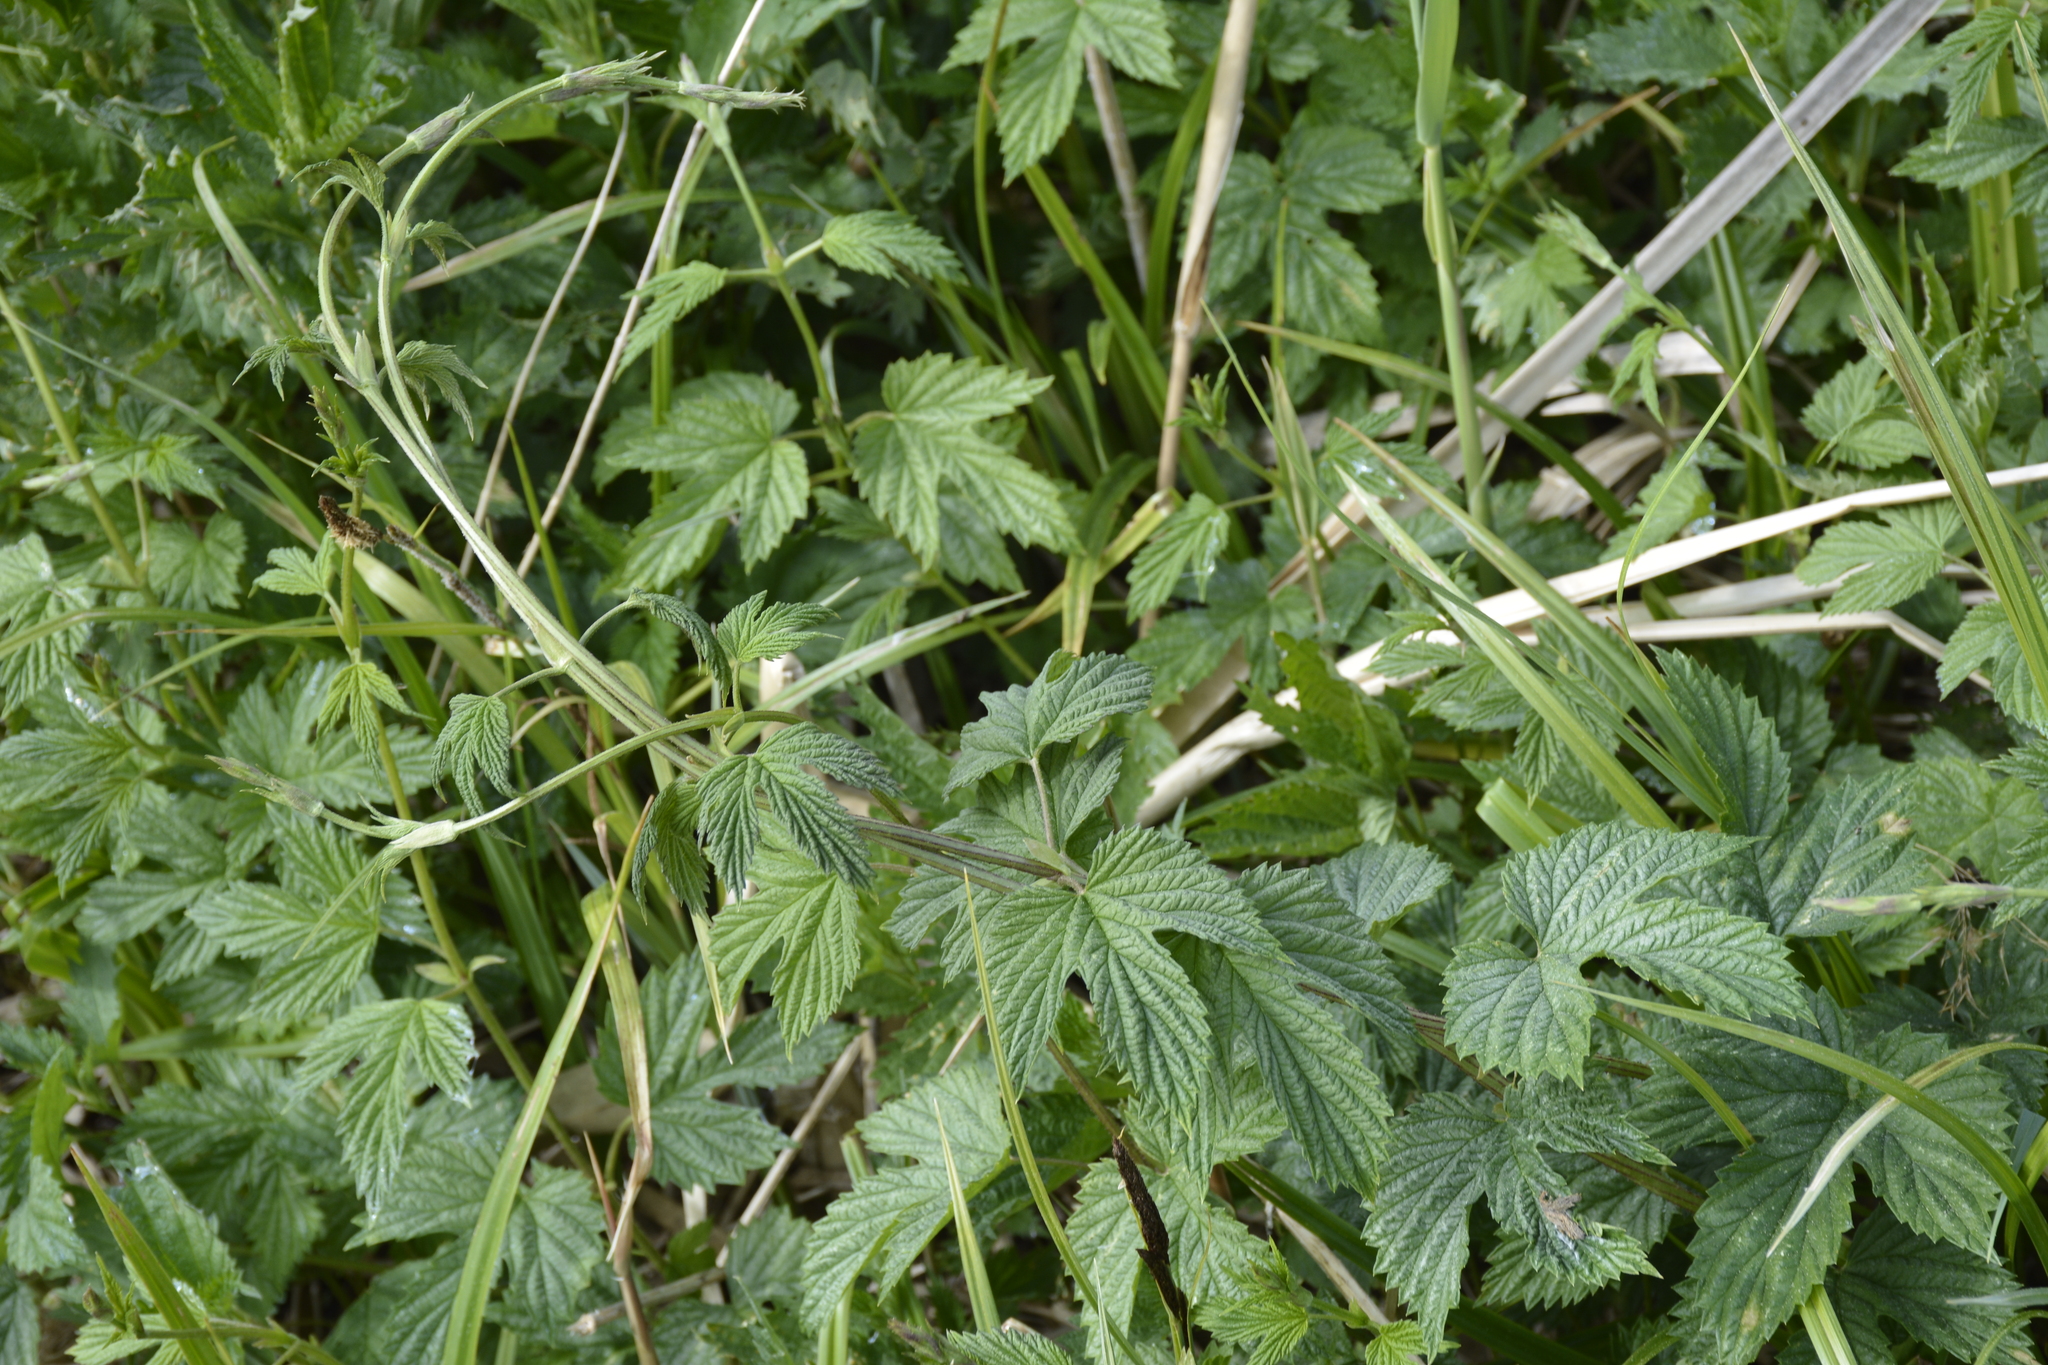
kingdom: Plantae
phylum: Tracheophyta
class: Magnoliopsida
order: Rosales
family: Cannabaceae
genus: Humulus
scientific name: Humulus lupulus
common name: Hop
